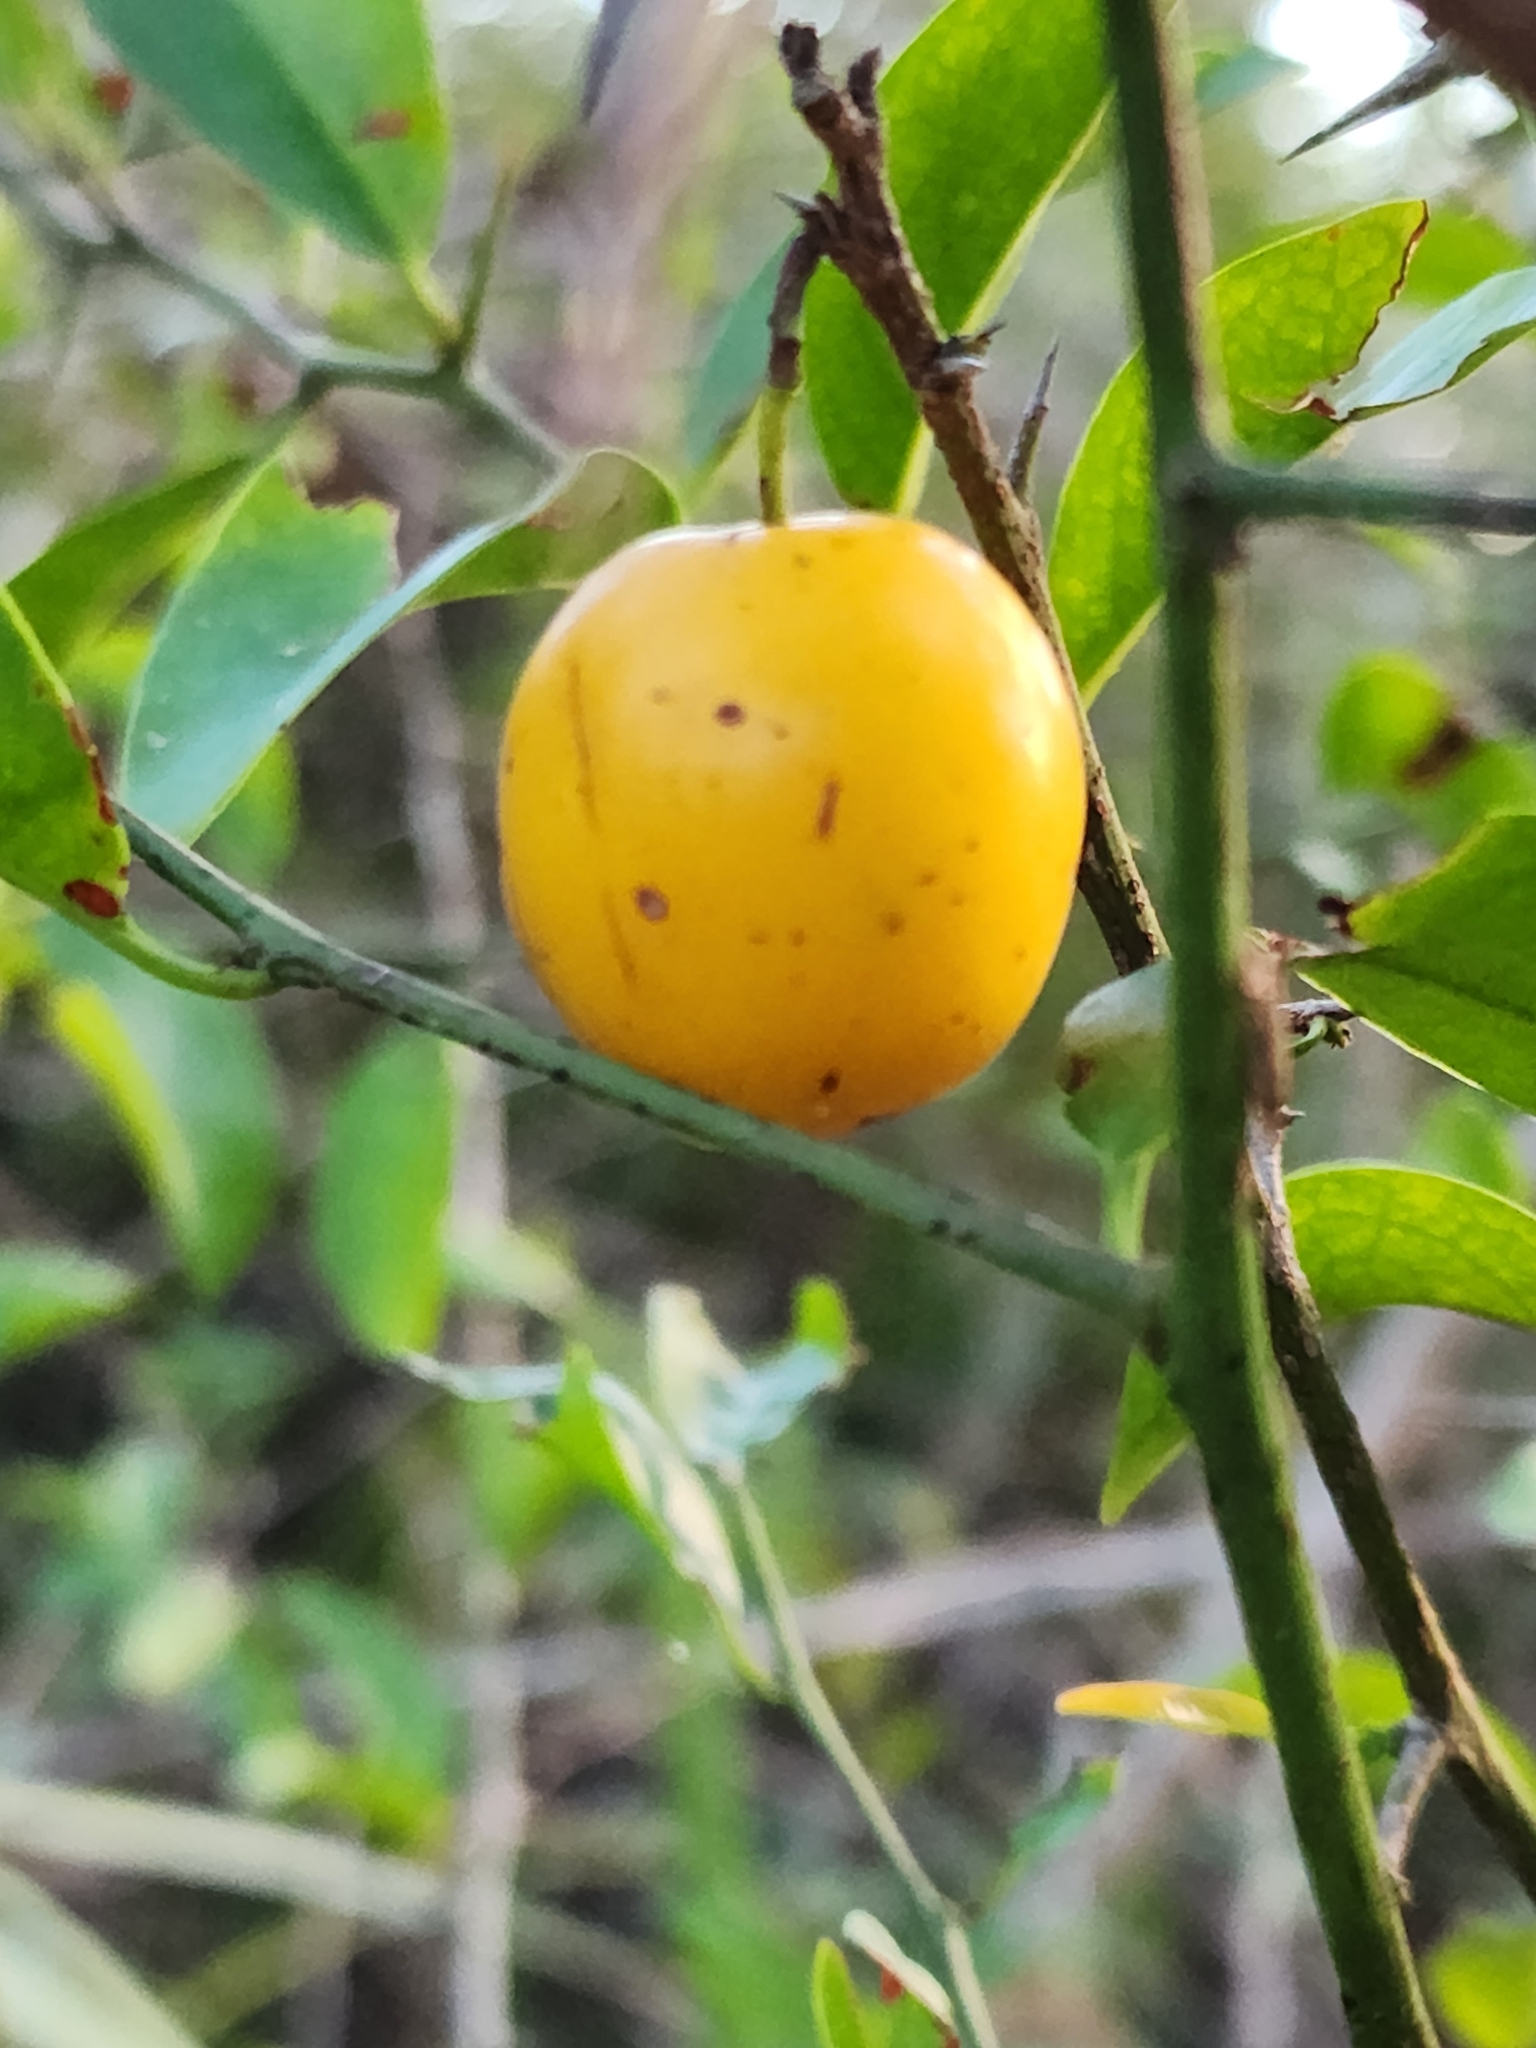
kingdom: Plantae
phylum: Tracheophyta
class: Magnoliopsida
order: Santalales
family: Ximeniaceae
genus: Ximenia
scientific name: Ximenia americana
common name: Tallowwood
